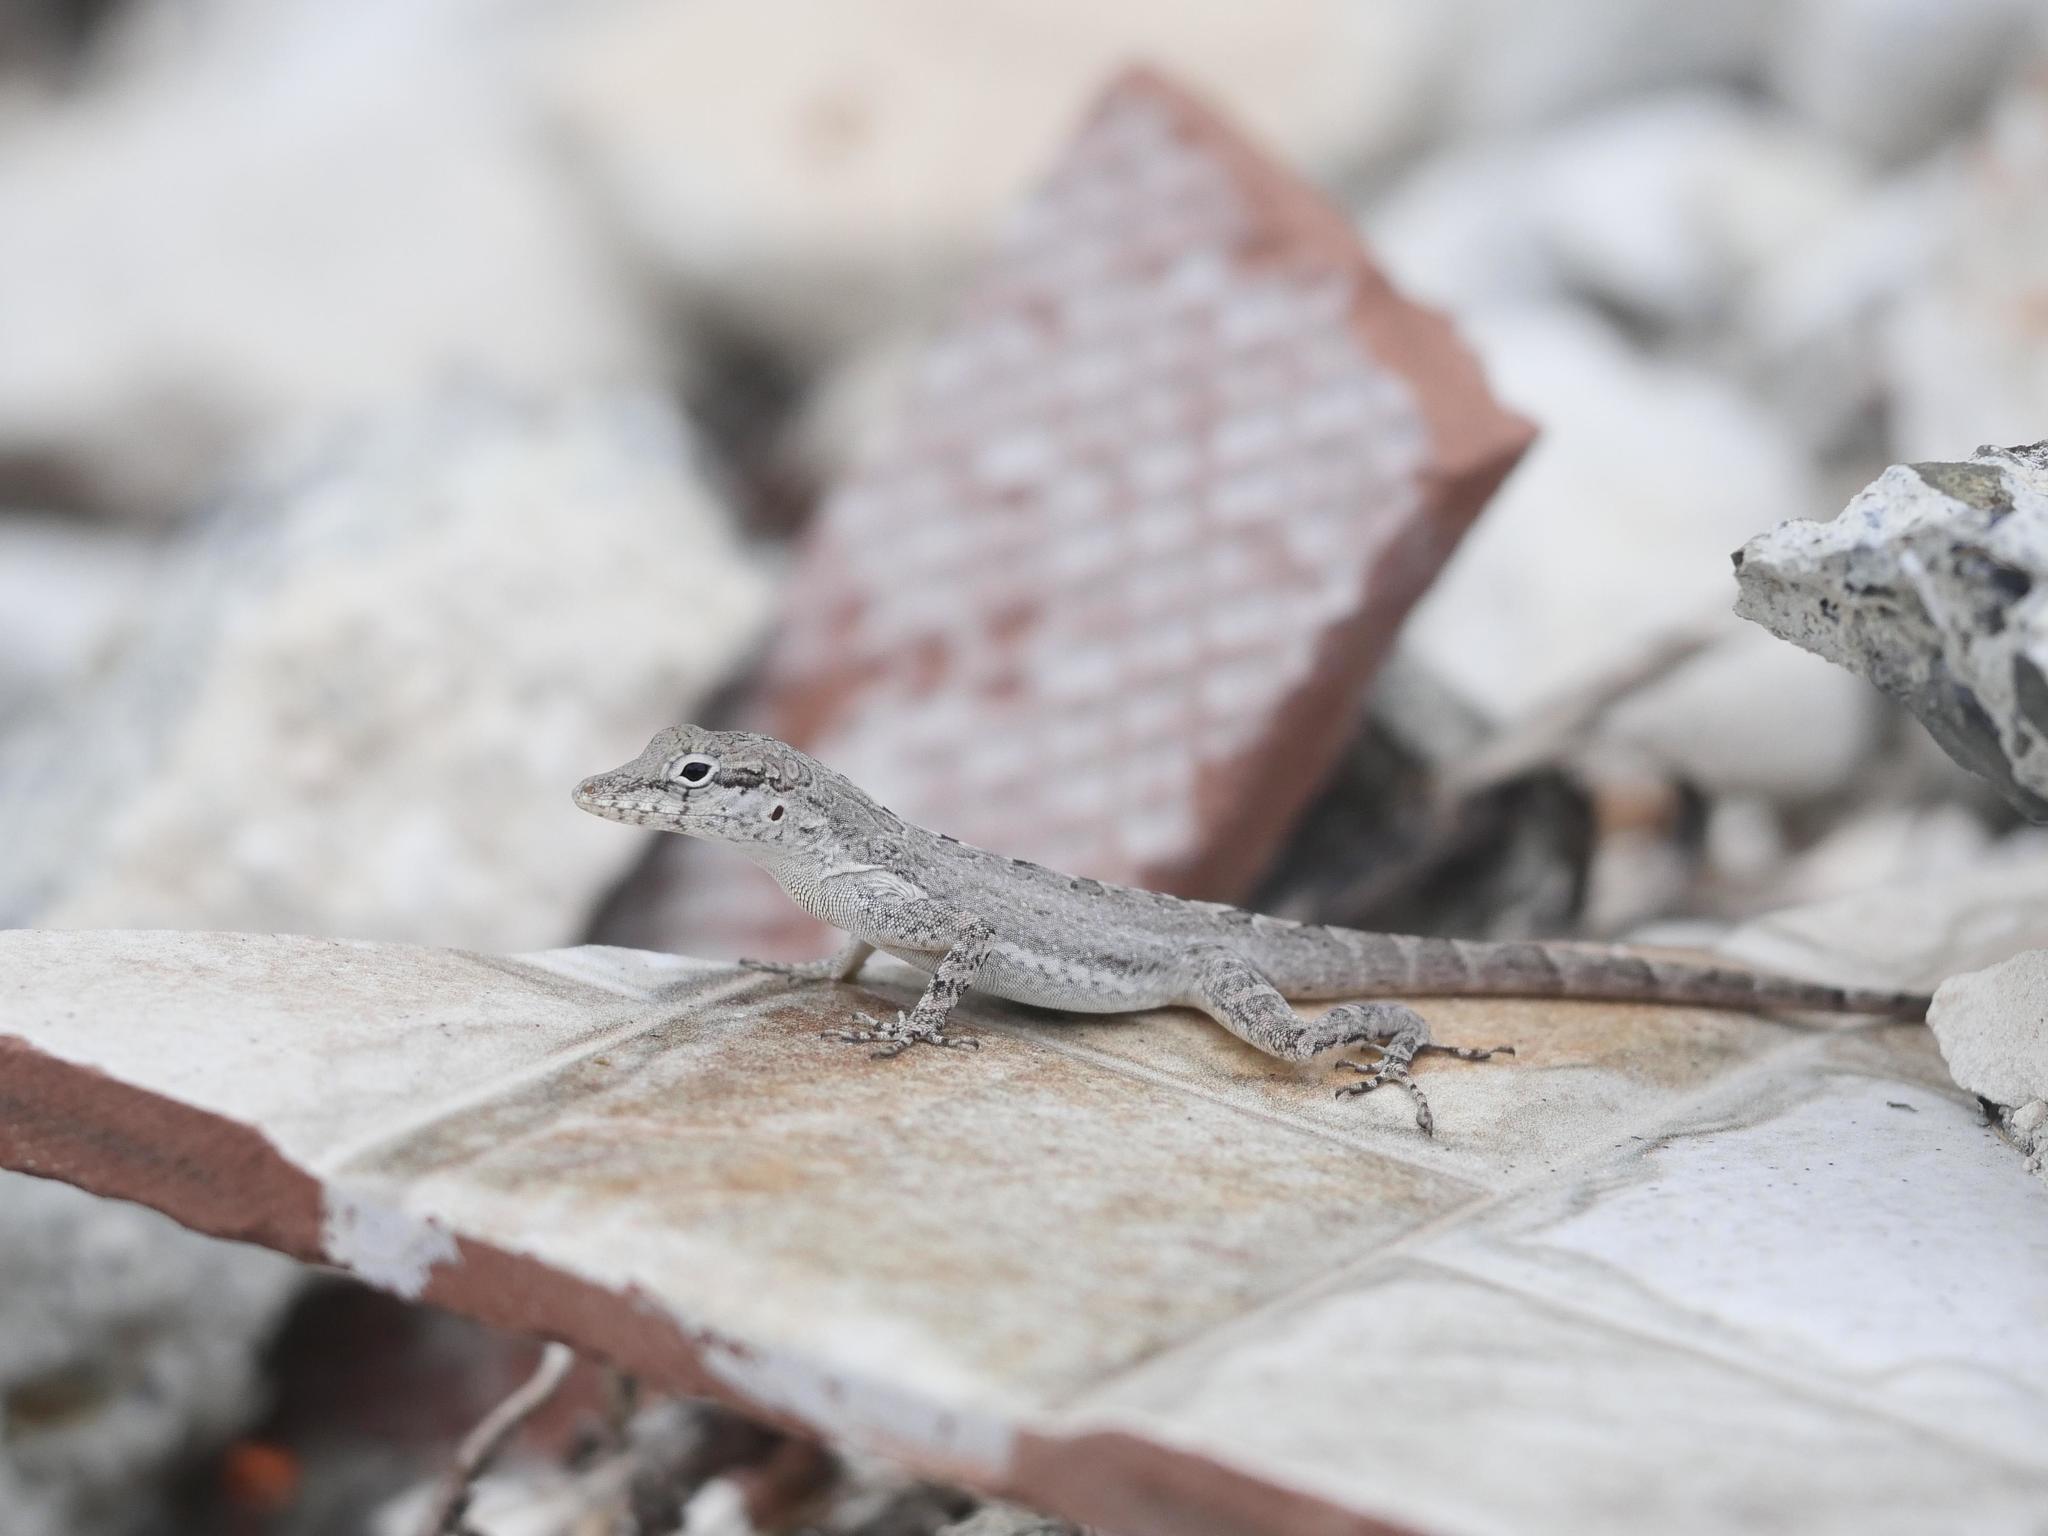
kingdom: Animalia
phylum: Chordata
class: Squamata
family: Dactyloidae
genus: Anolis
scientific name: Anolis scriptus
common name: Silver key anole
